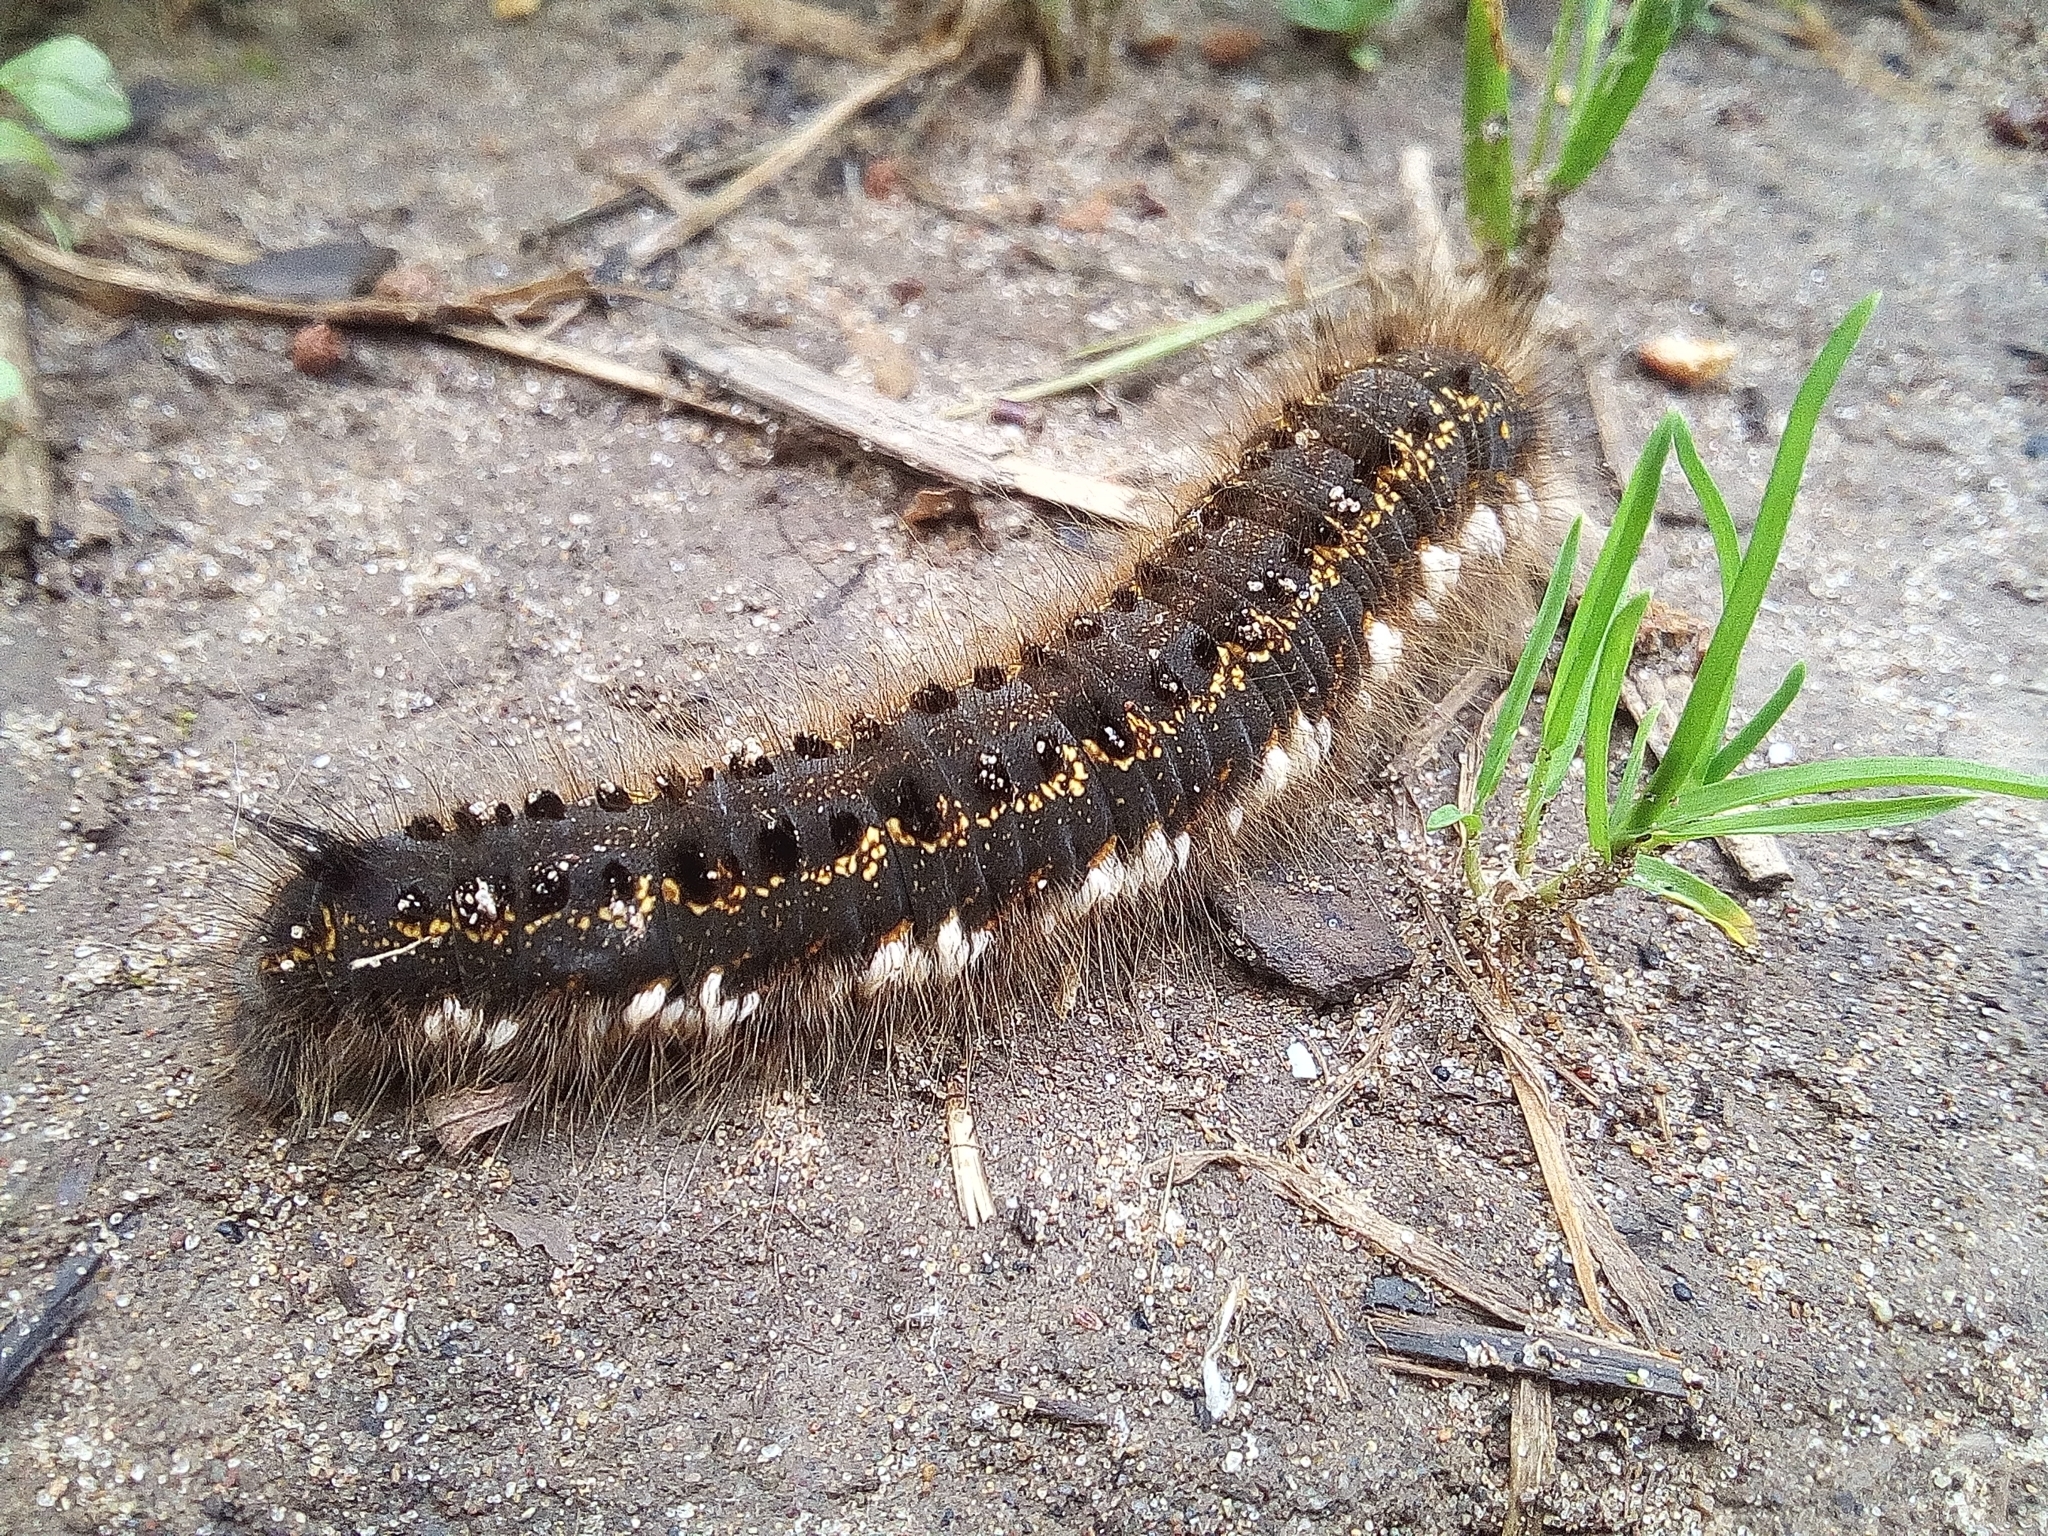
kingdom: Animalia
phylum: Arthropoda
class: Insecta
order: Lepidoptera
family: Lasiocampidae
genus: Euthrix
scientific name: Euthrix potatoria
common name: Drinker
